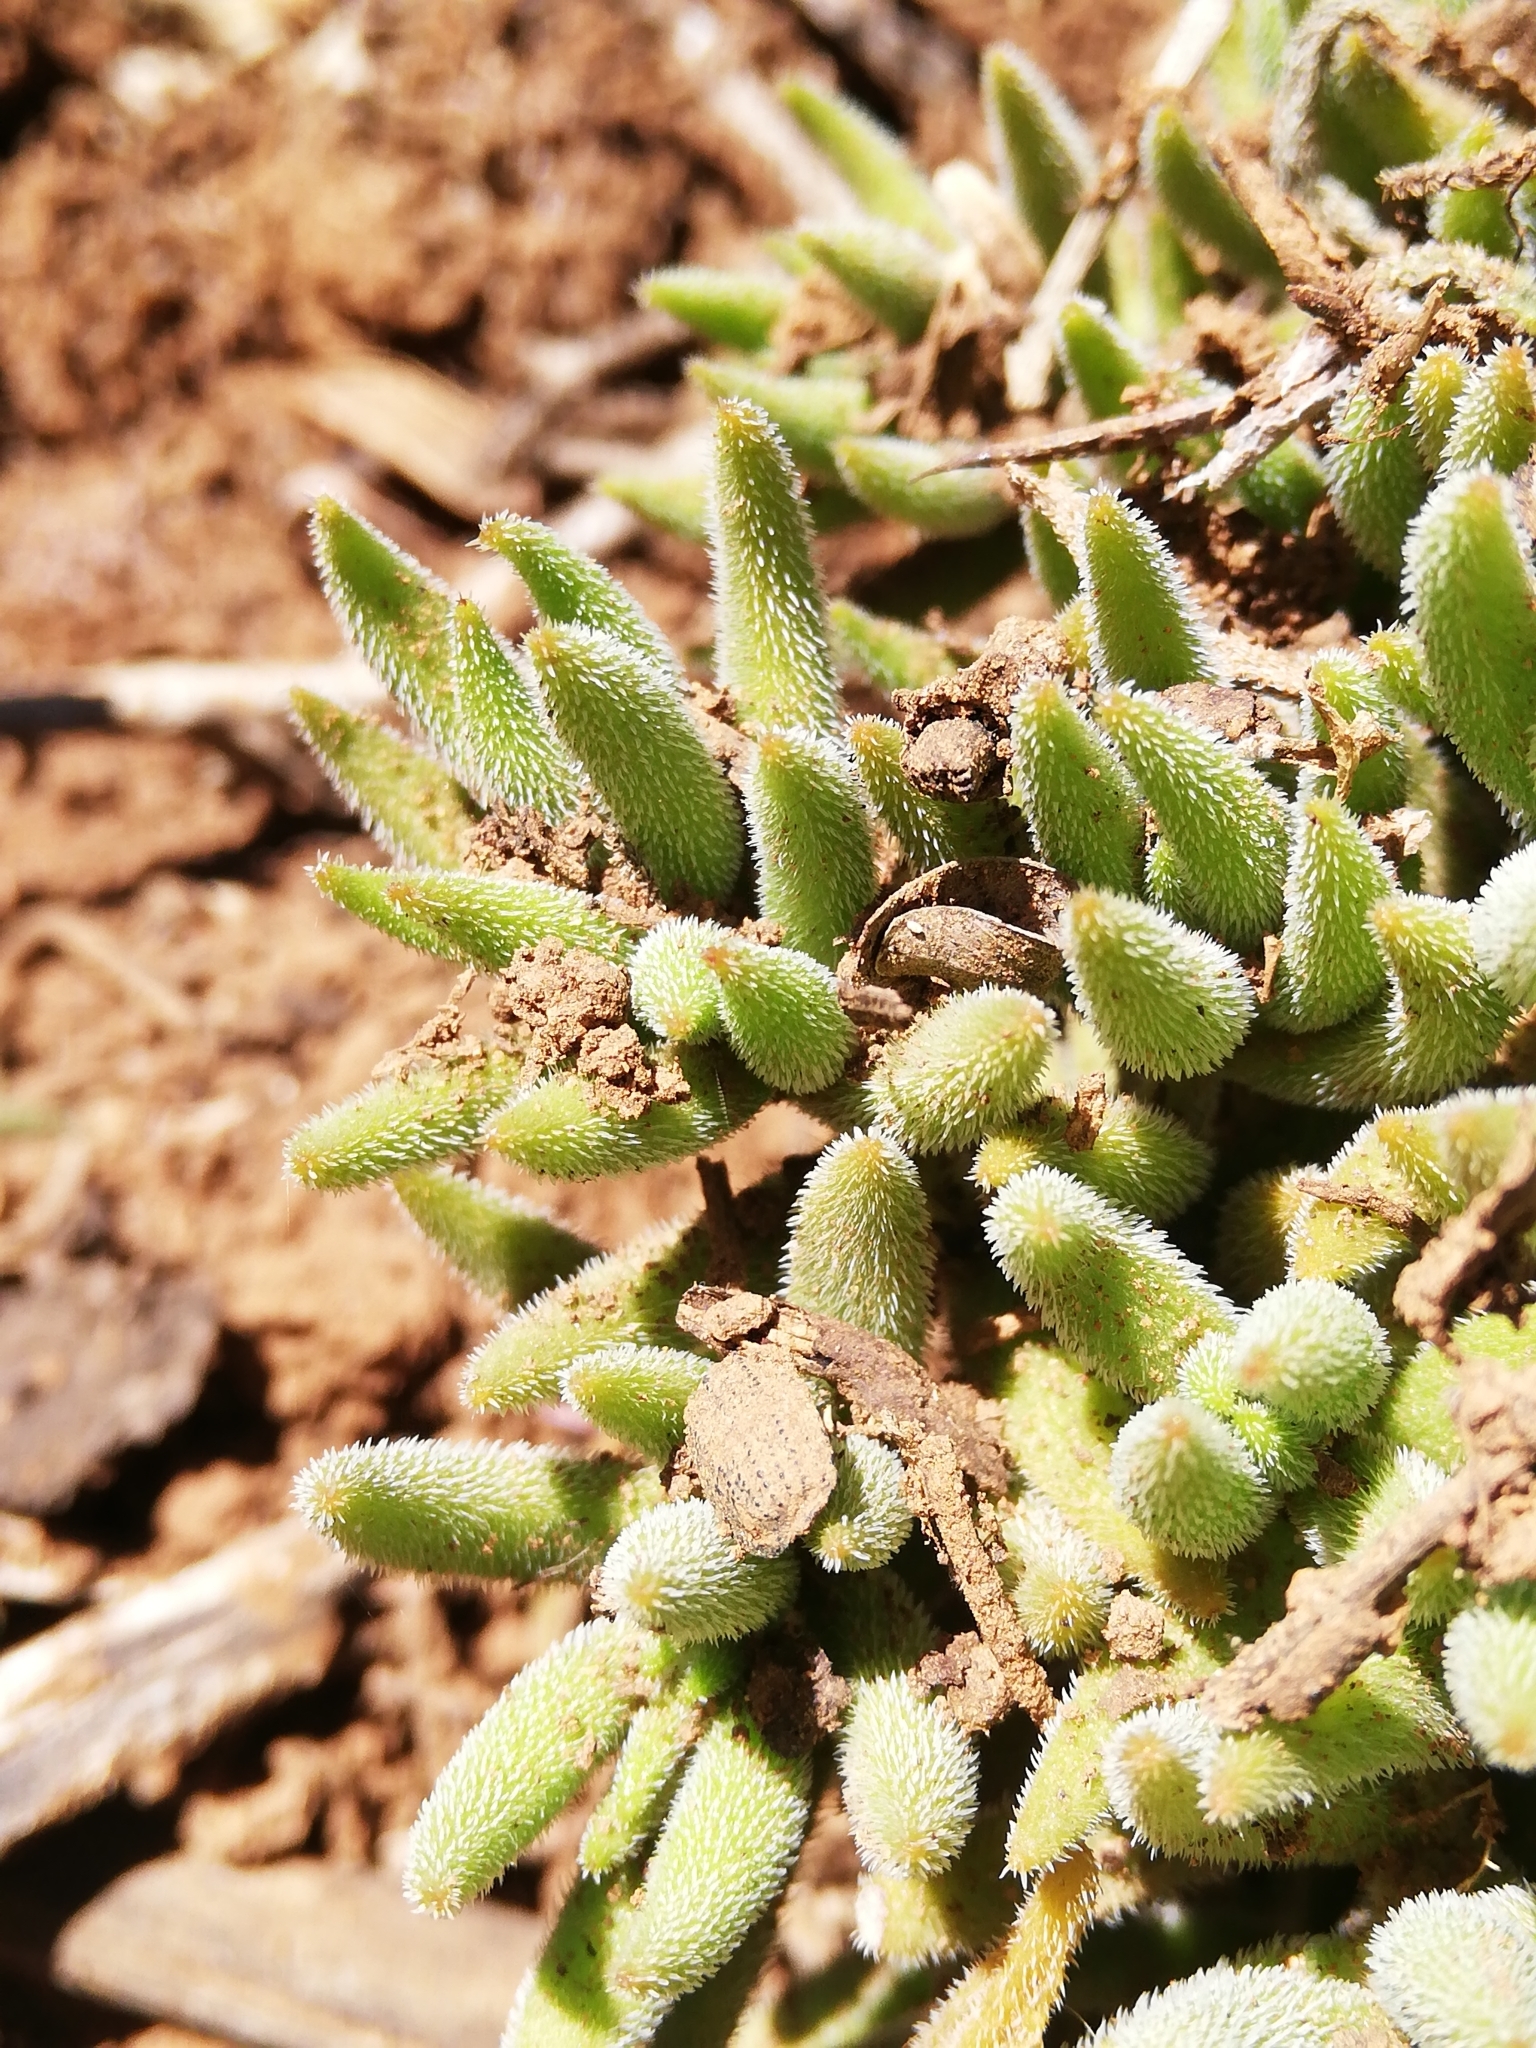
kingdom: Plantae
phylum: Tracheophyta
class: Magnoliopsida
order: Saxifragales
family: Crassulaceae
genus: Crassula
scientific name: Crassula mesembryanthoides
